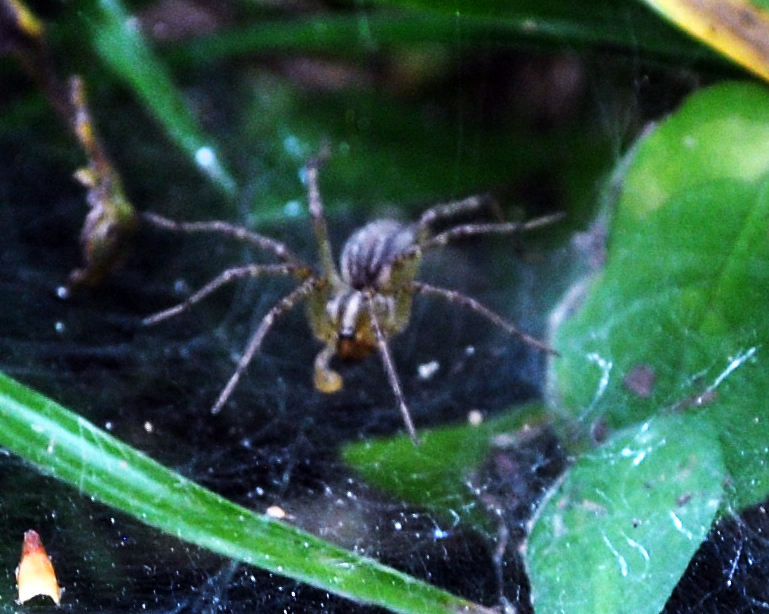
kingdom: Animalia
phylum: Arthropoda
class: Arachnida
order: Araneae
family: Agelenidae
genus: Agelenopsis
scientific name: Agelenopsis
